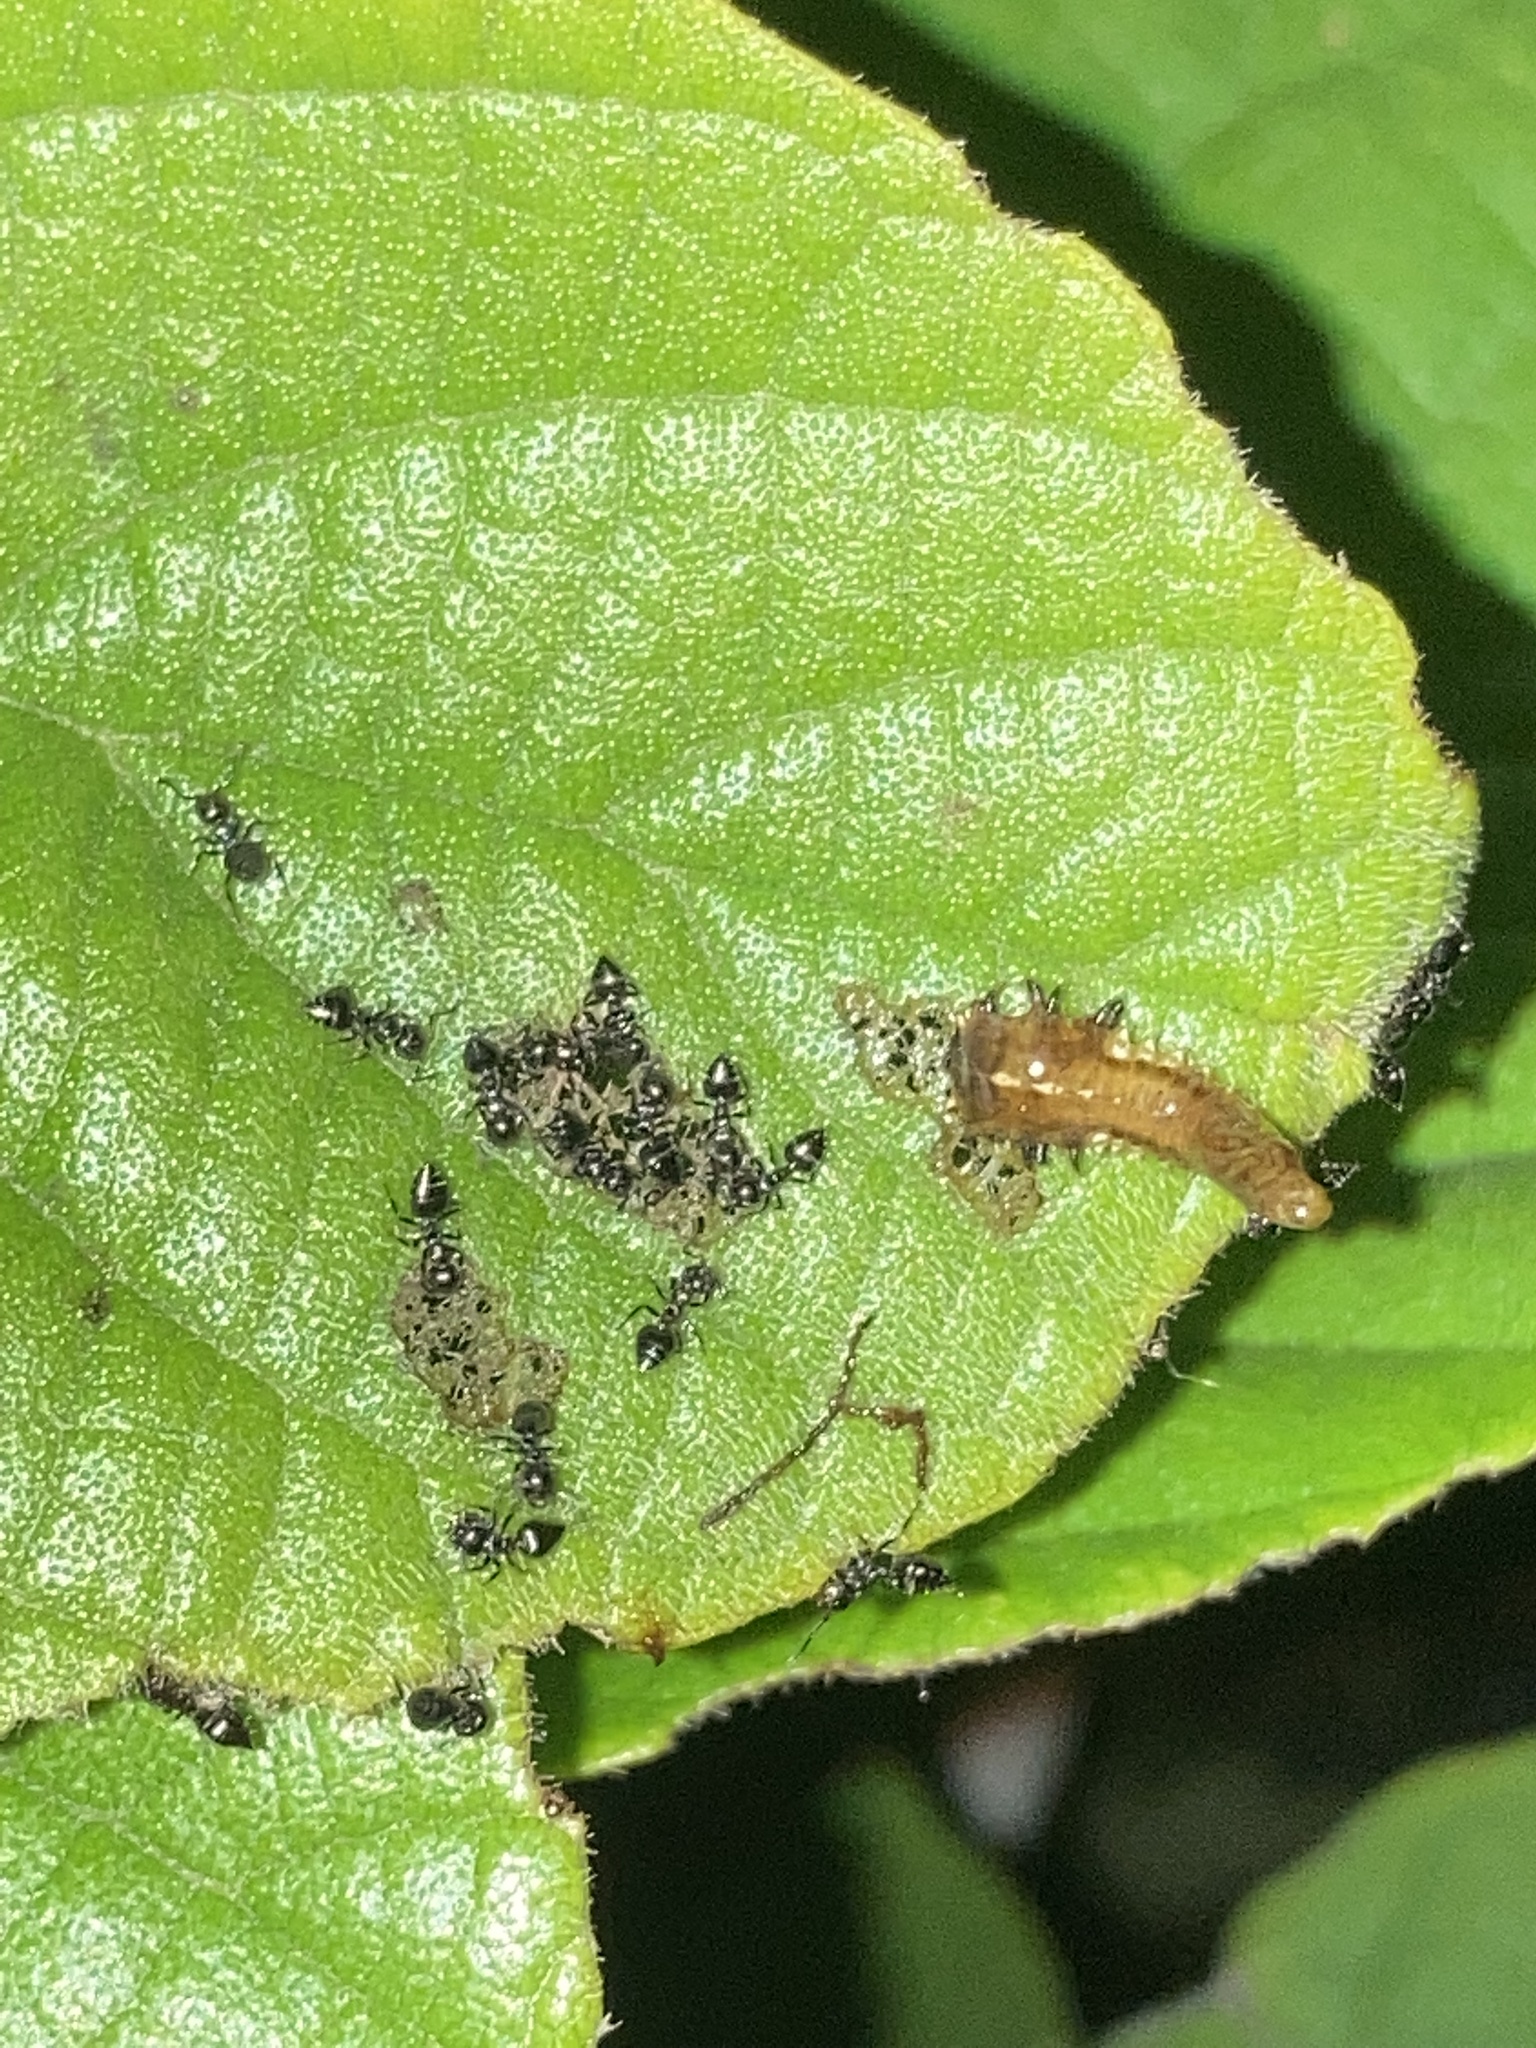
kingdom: Animalia
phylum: Arthropoda
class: Insecta
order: Coleoptera
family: Chrysomelidae
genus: Eurypepla
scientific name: Eurypepla calochroma
